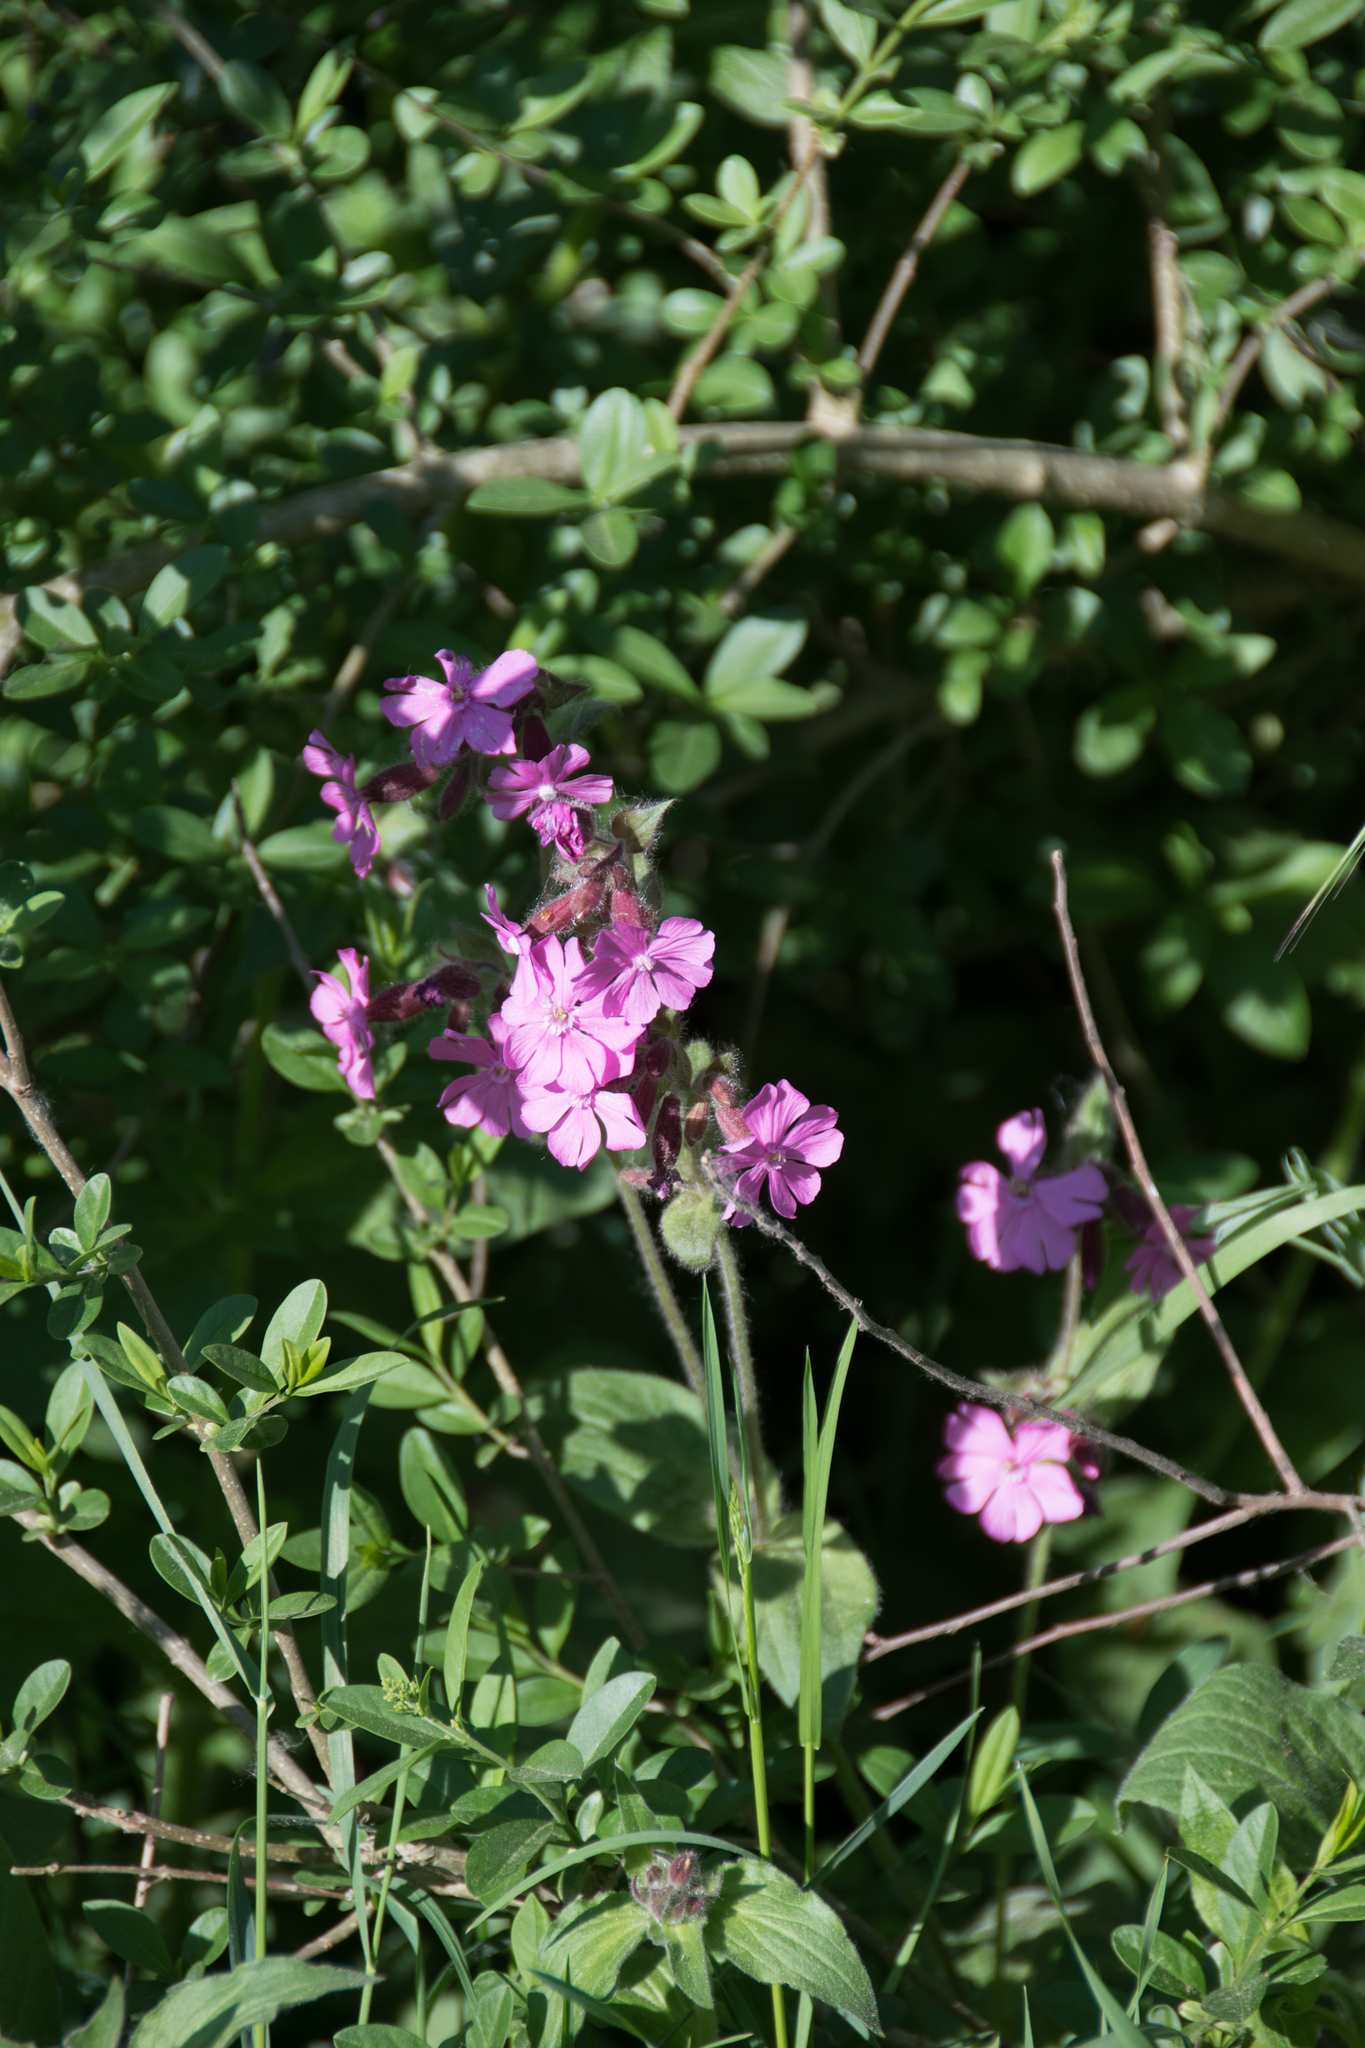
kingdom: Plantae
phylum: Tracheophyta
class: Magnoliopsida
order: Caryophyllales
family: Caryophyllaceae
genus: Silene
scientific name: Silene dioica
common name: Red campion
